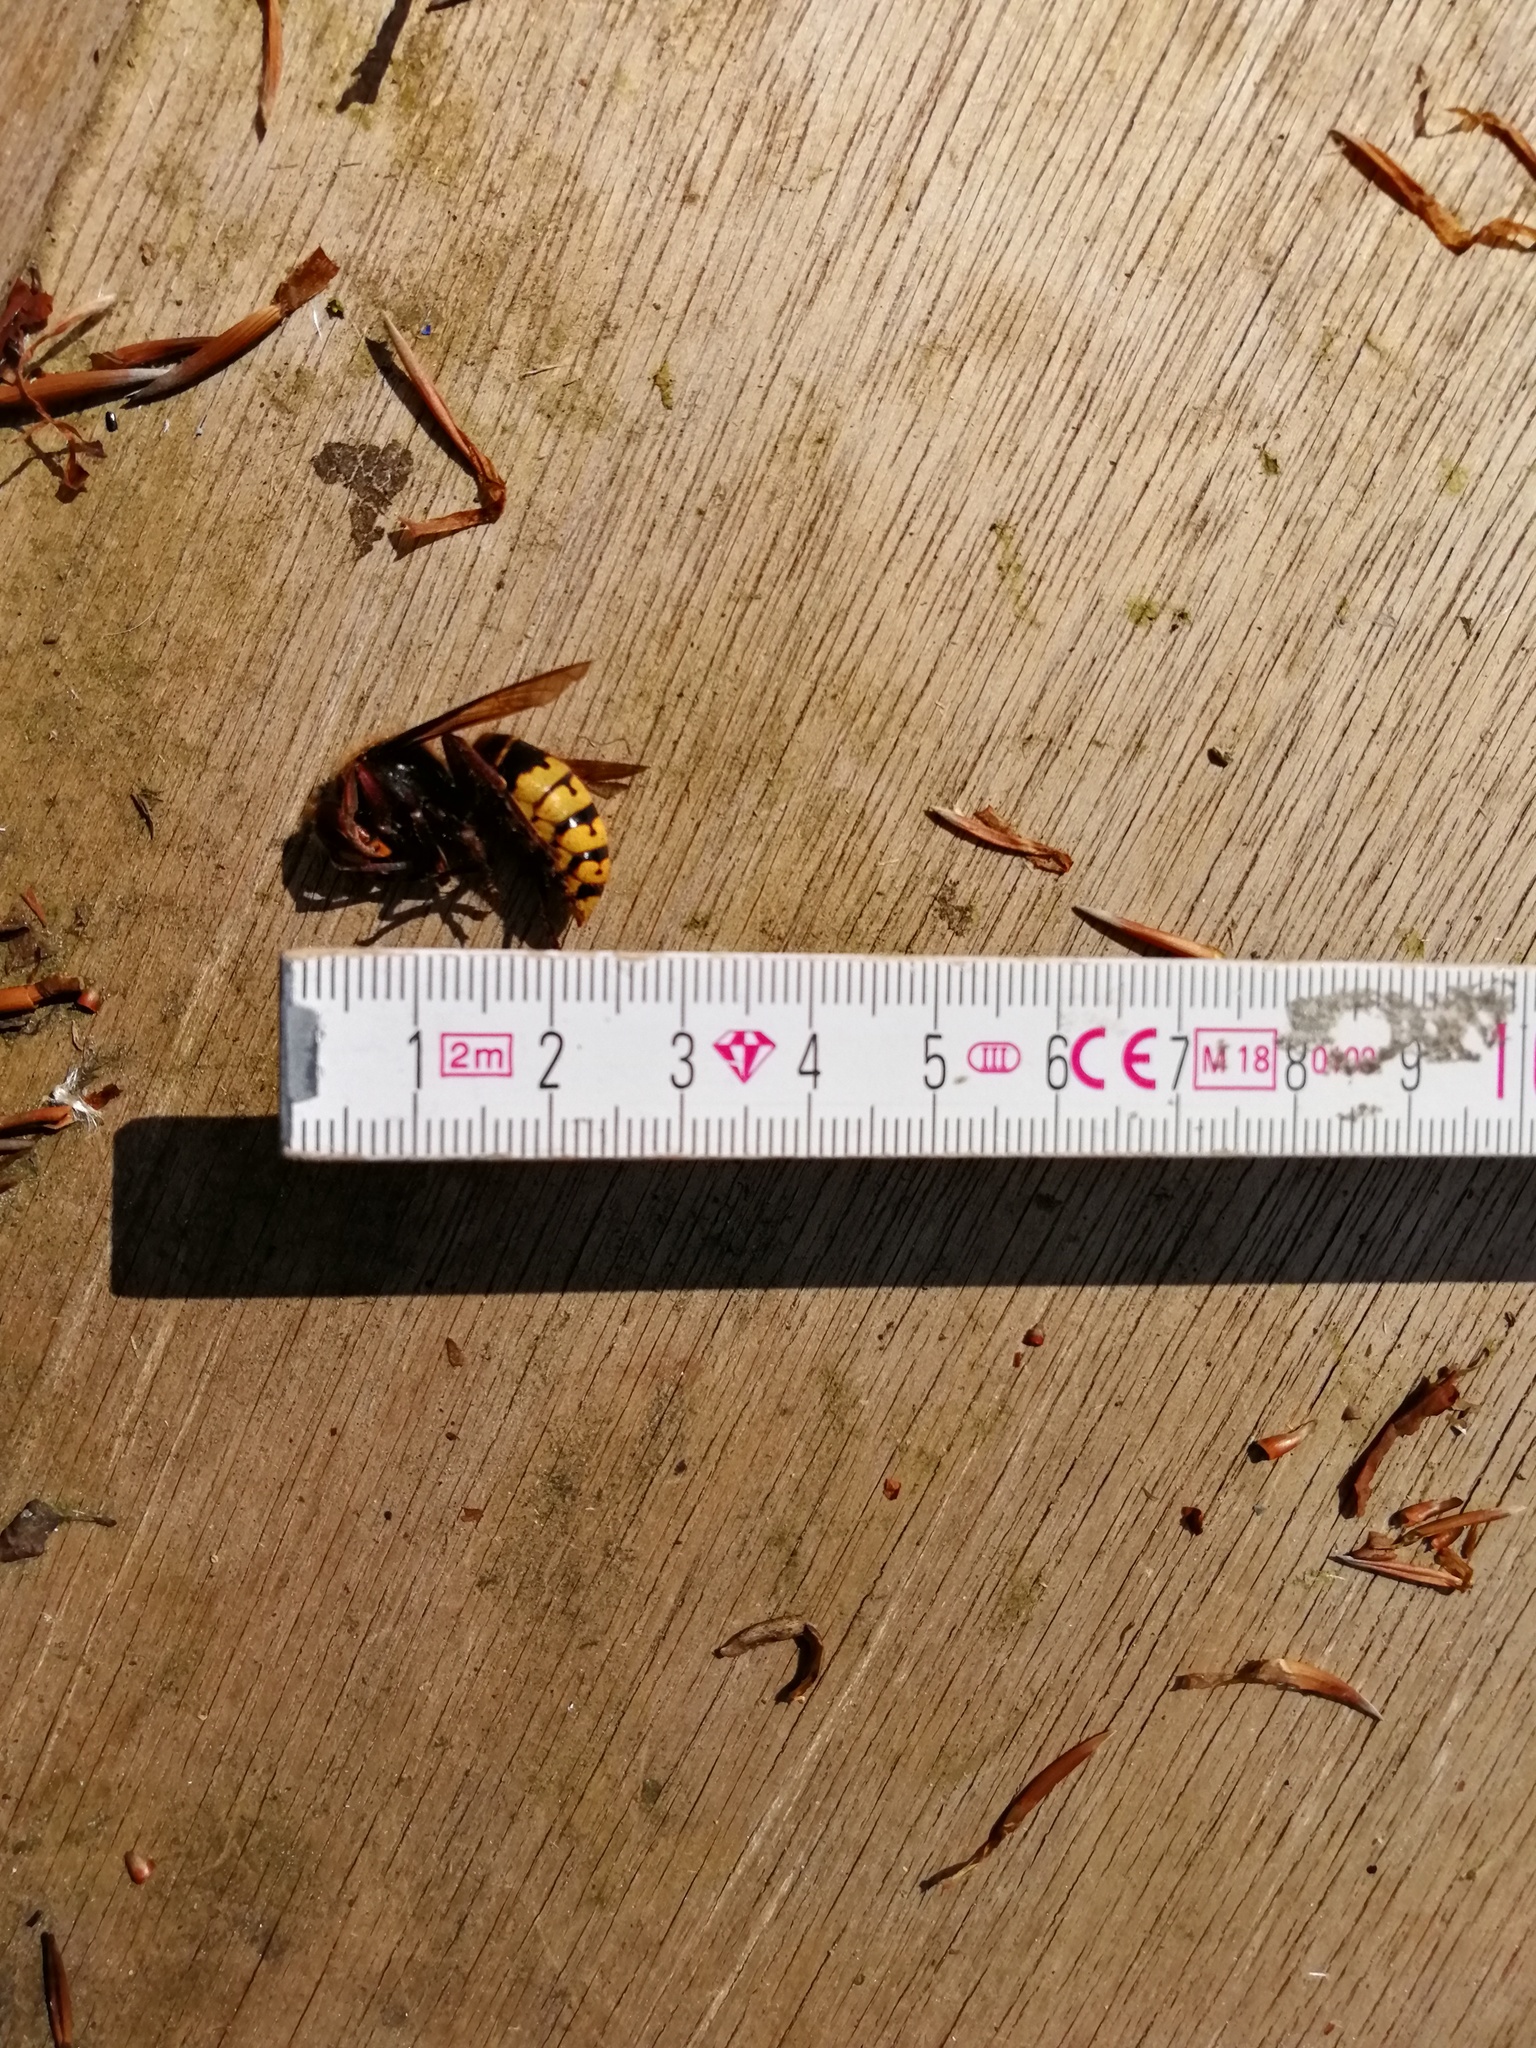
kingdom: Animalia
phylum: Arthropoda
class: Insecta
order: Hymenoptera
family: Vespidae
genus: Vespa
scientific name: Vespa crabro
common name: Hornet
